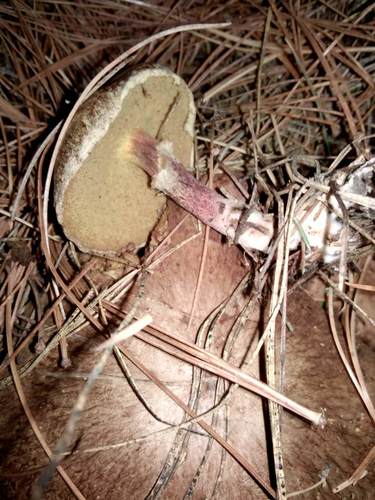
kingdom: Fungi
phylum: Basidiomycota
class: Agaricomycetes
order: Boletales
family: Suillaceae
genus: Suillus
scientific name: Suillus americanus
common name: Chicken fat mushroom
